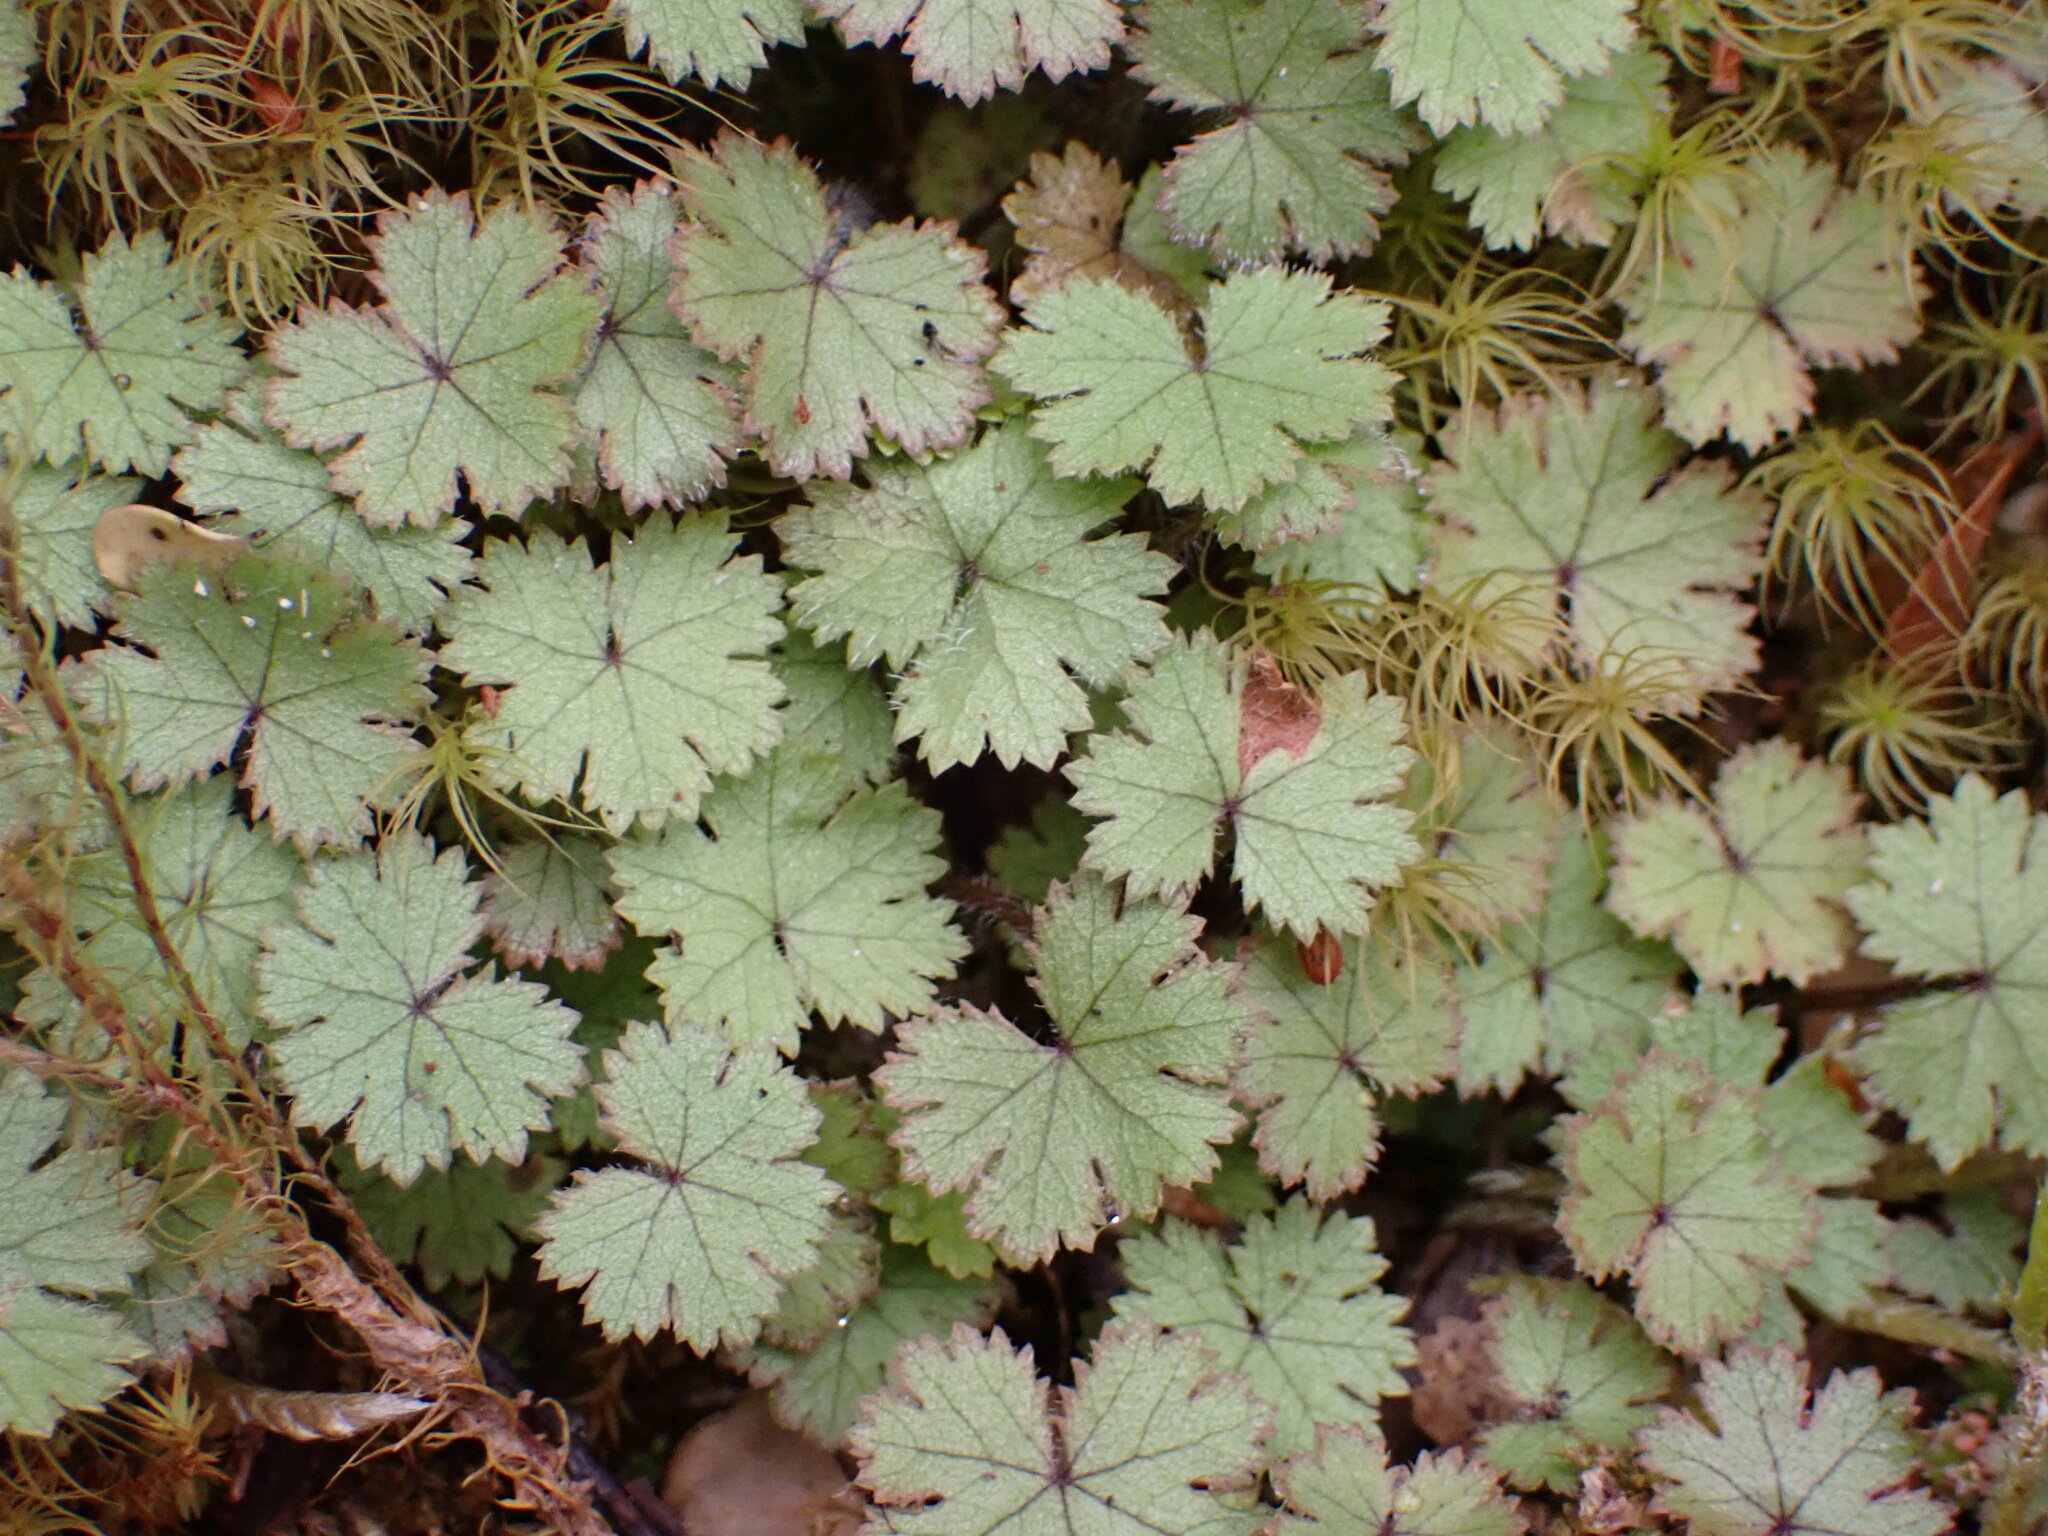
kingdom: Plantae
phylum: Tracheophyta
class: Magnoliopsida
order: Apiales
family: Araliaceae
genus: Hydrocotyle
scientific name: Hydrocotyle moschata
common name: Hairy pennywort
